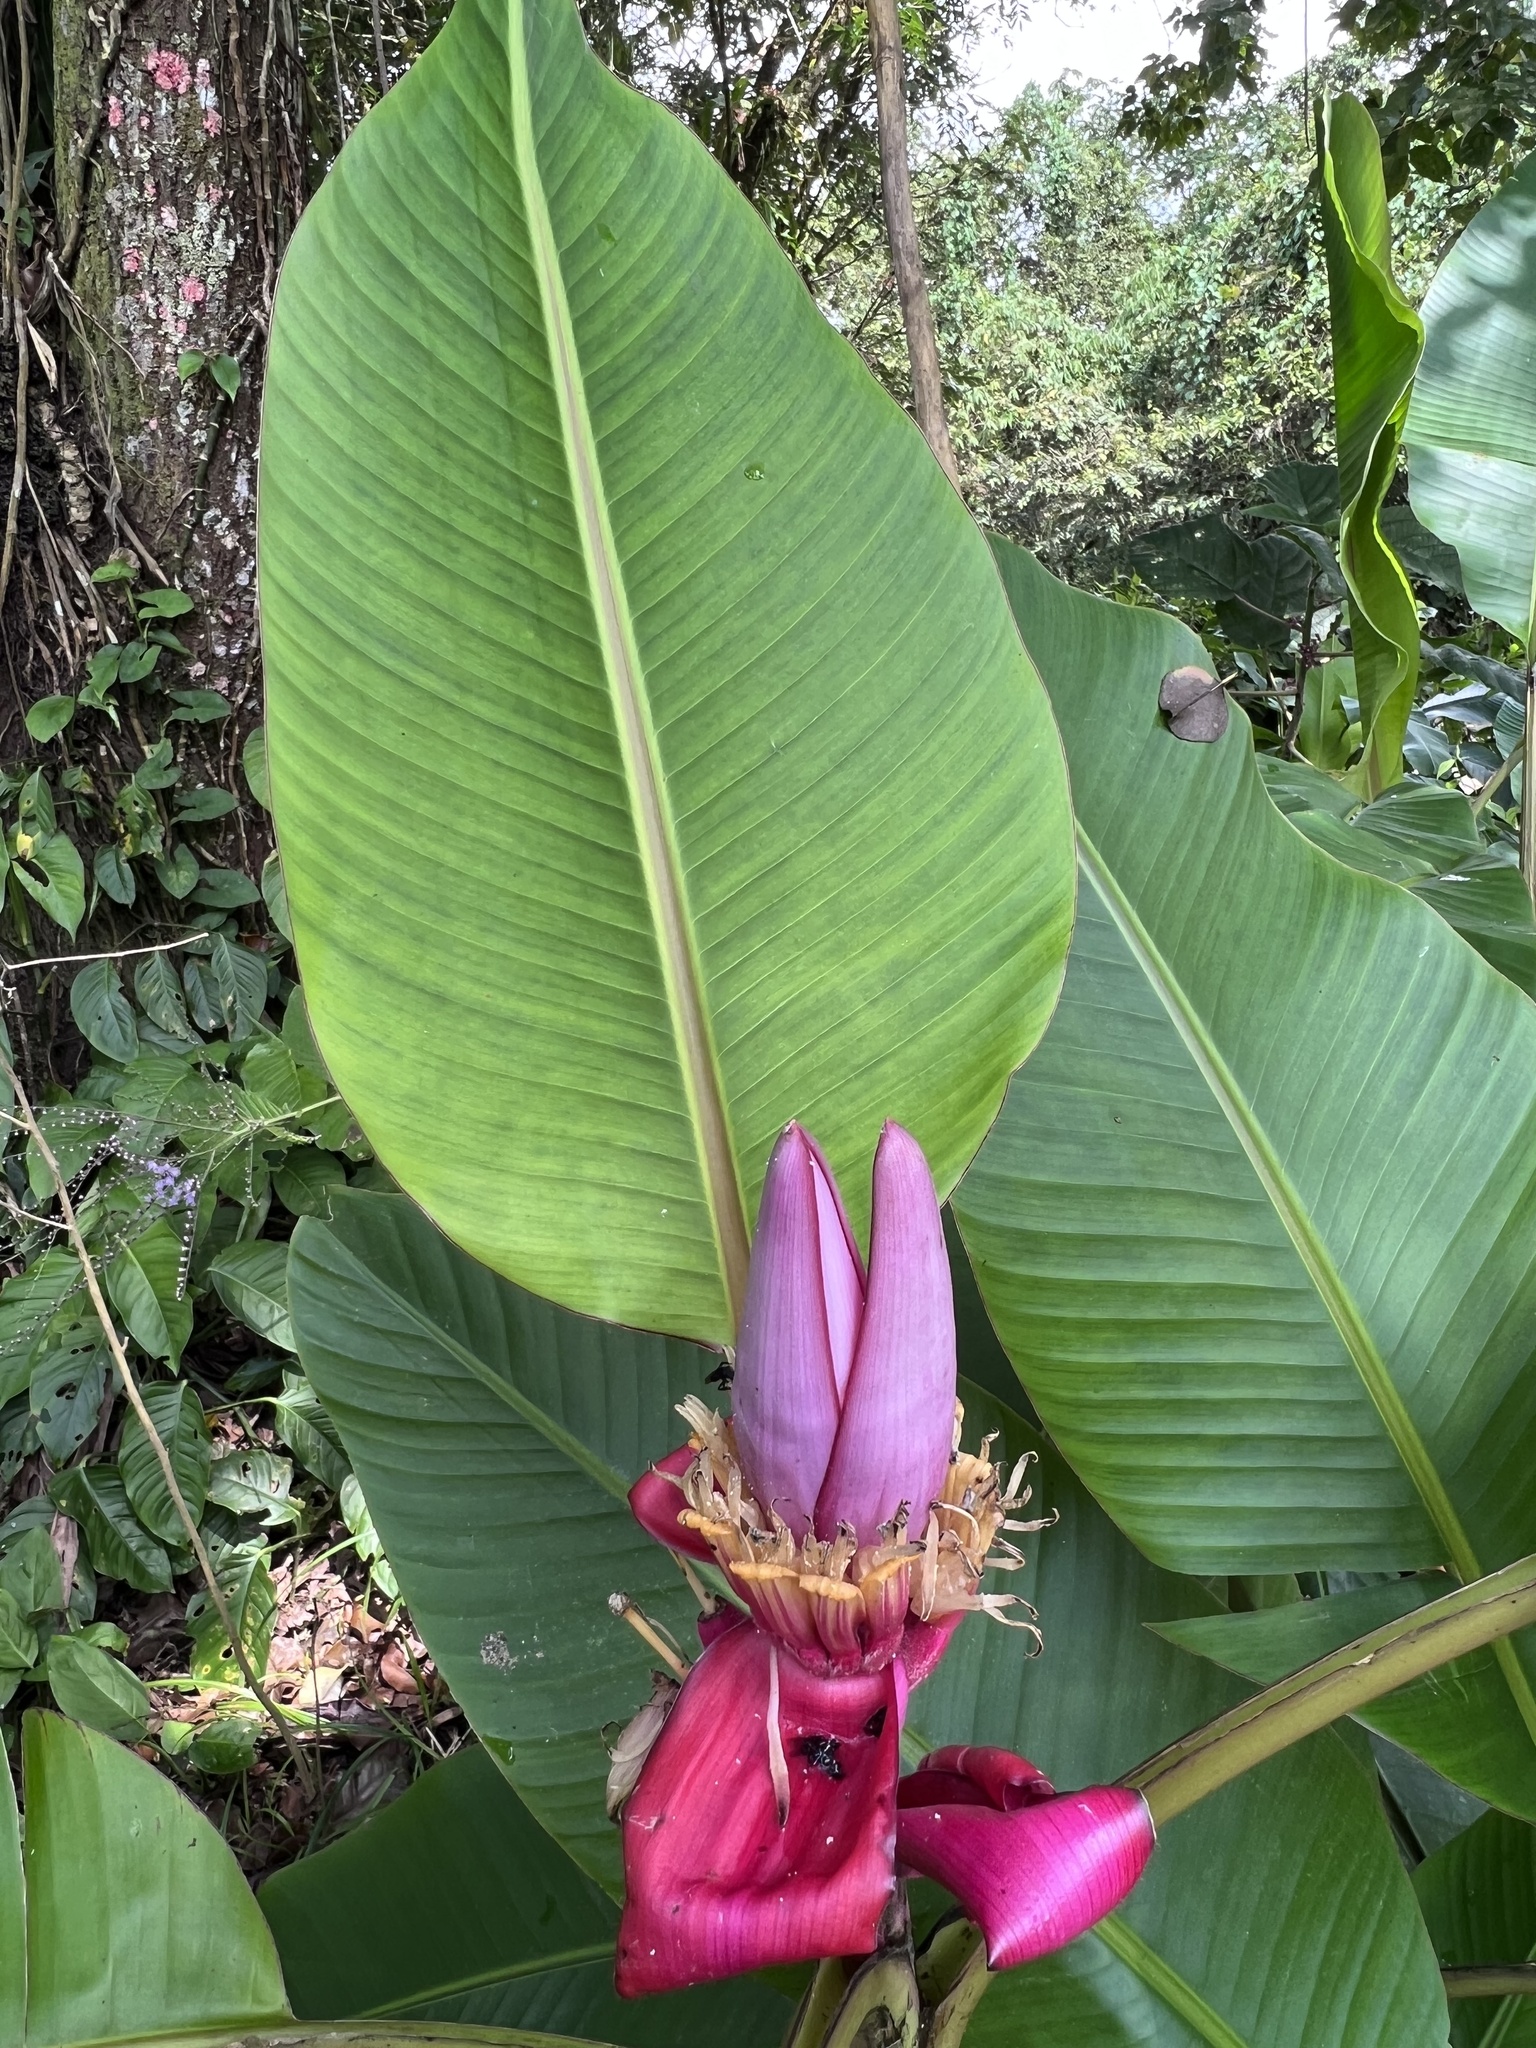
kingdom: Plantae
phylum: Tracheophyta
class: Liliopsida
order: Zingiberales
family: Musaceae
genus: Musa
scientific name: Musa velutina
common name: Pink velvet banana
